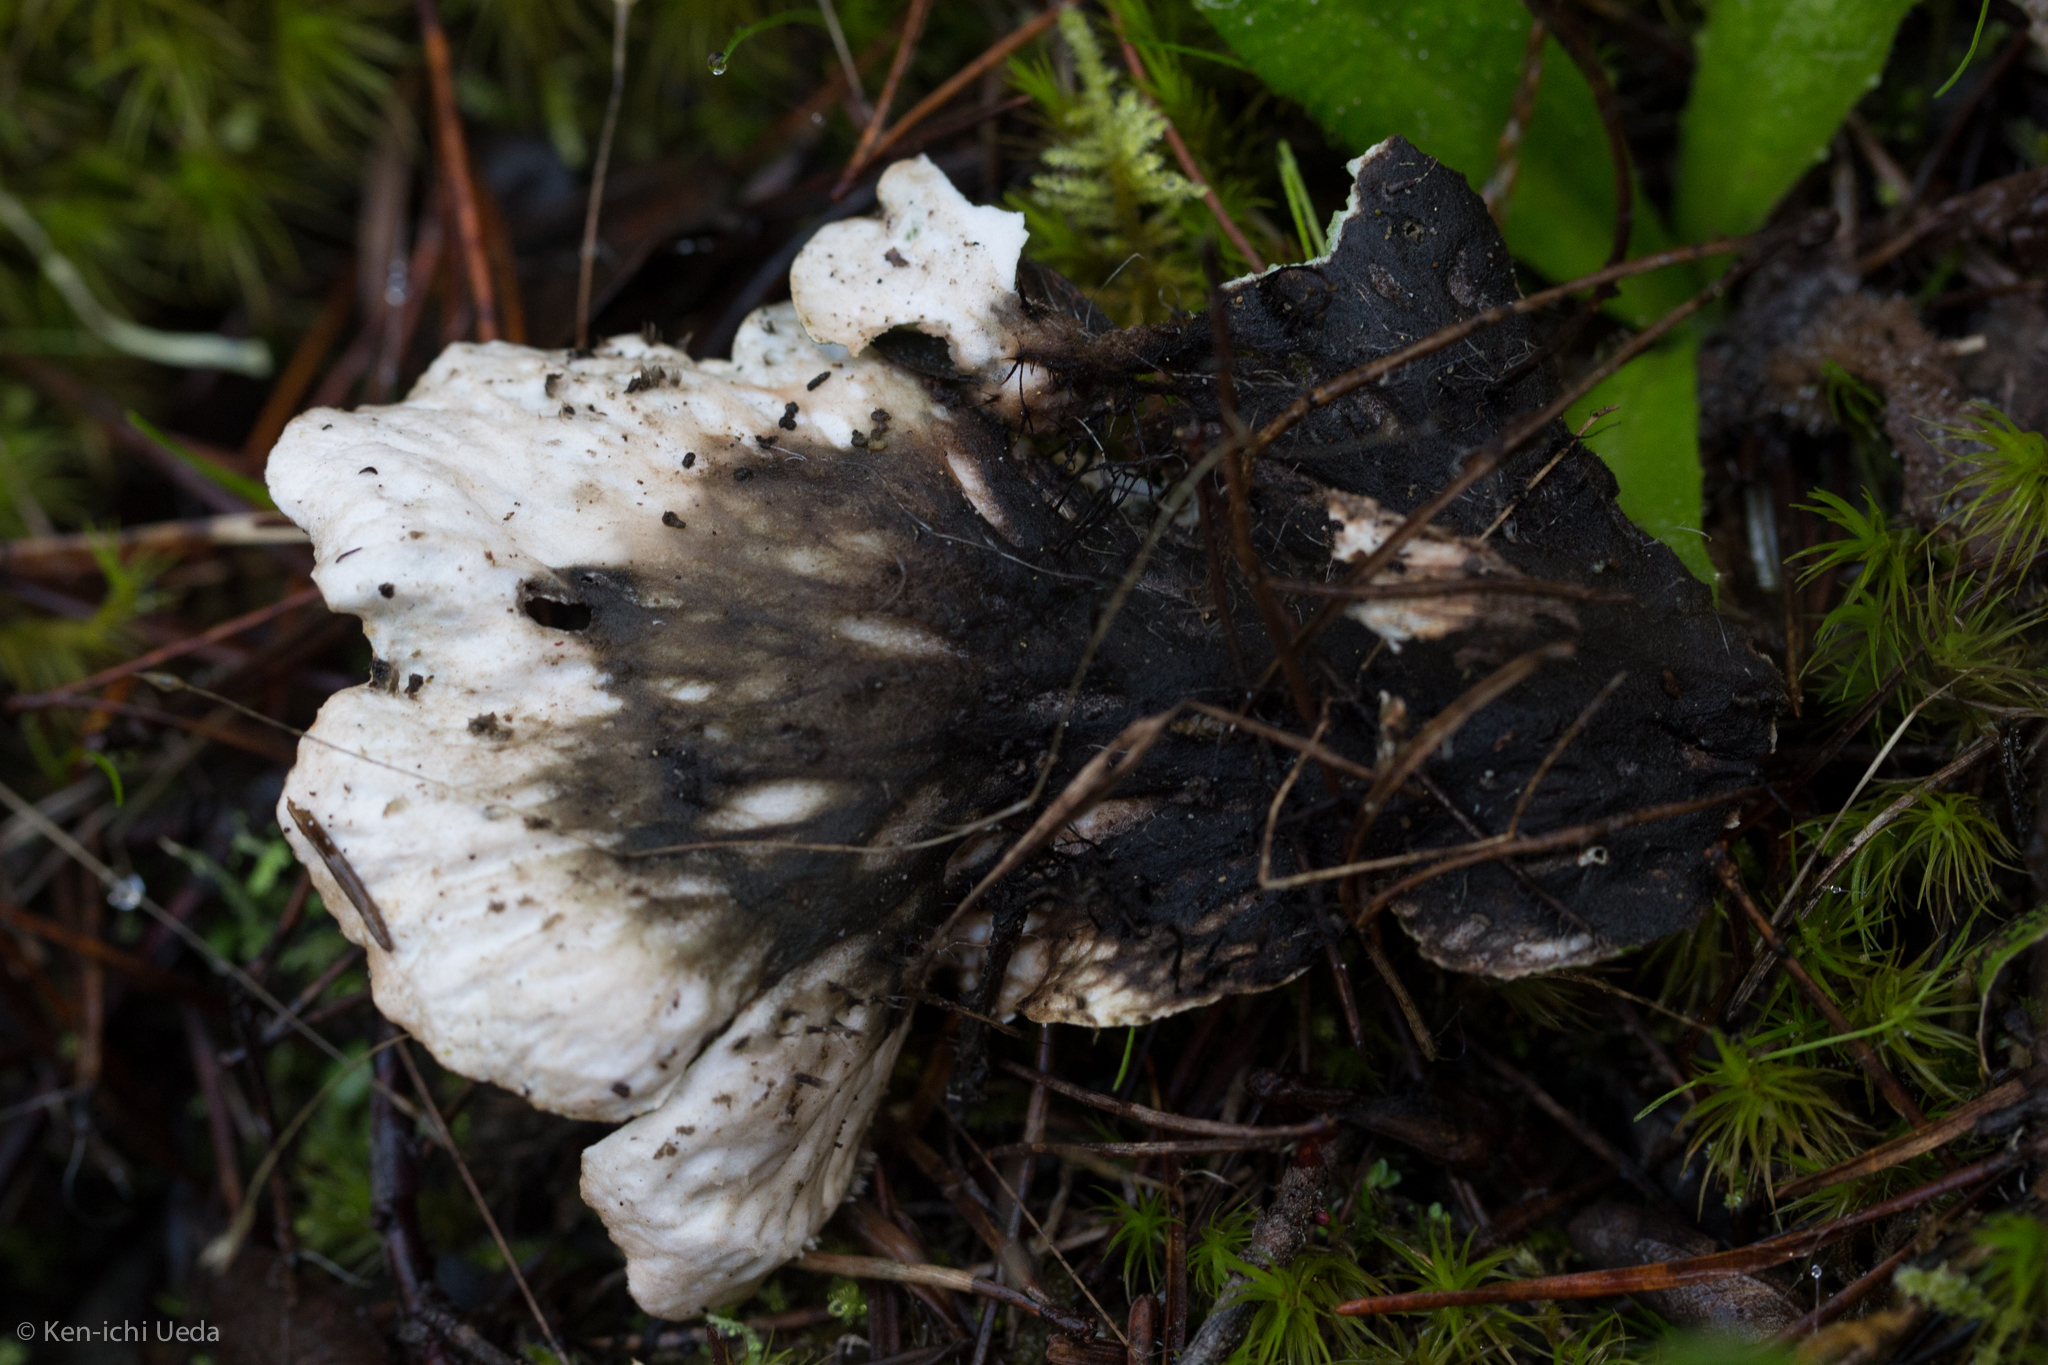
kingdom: Fungi
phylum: Ascomycota
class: Lecanoromycetes
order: Peltigerales
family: Peltigeraceae
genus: Peltigera
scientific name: Peltigera leucophlebia
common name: Ruffled freckle pelt lichen
